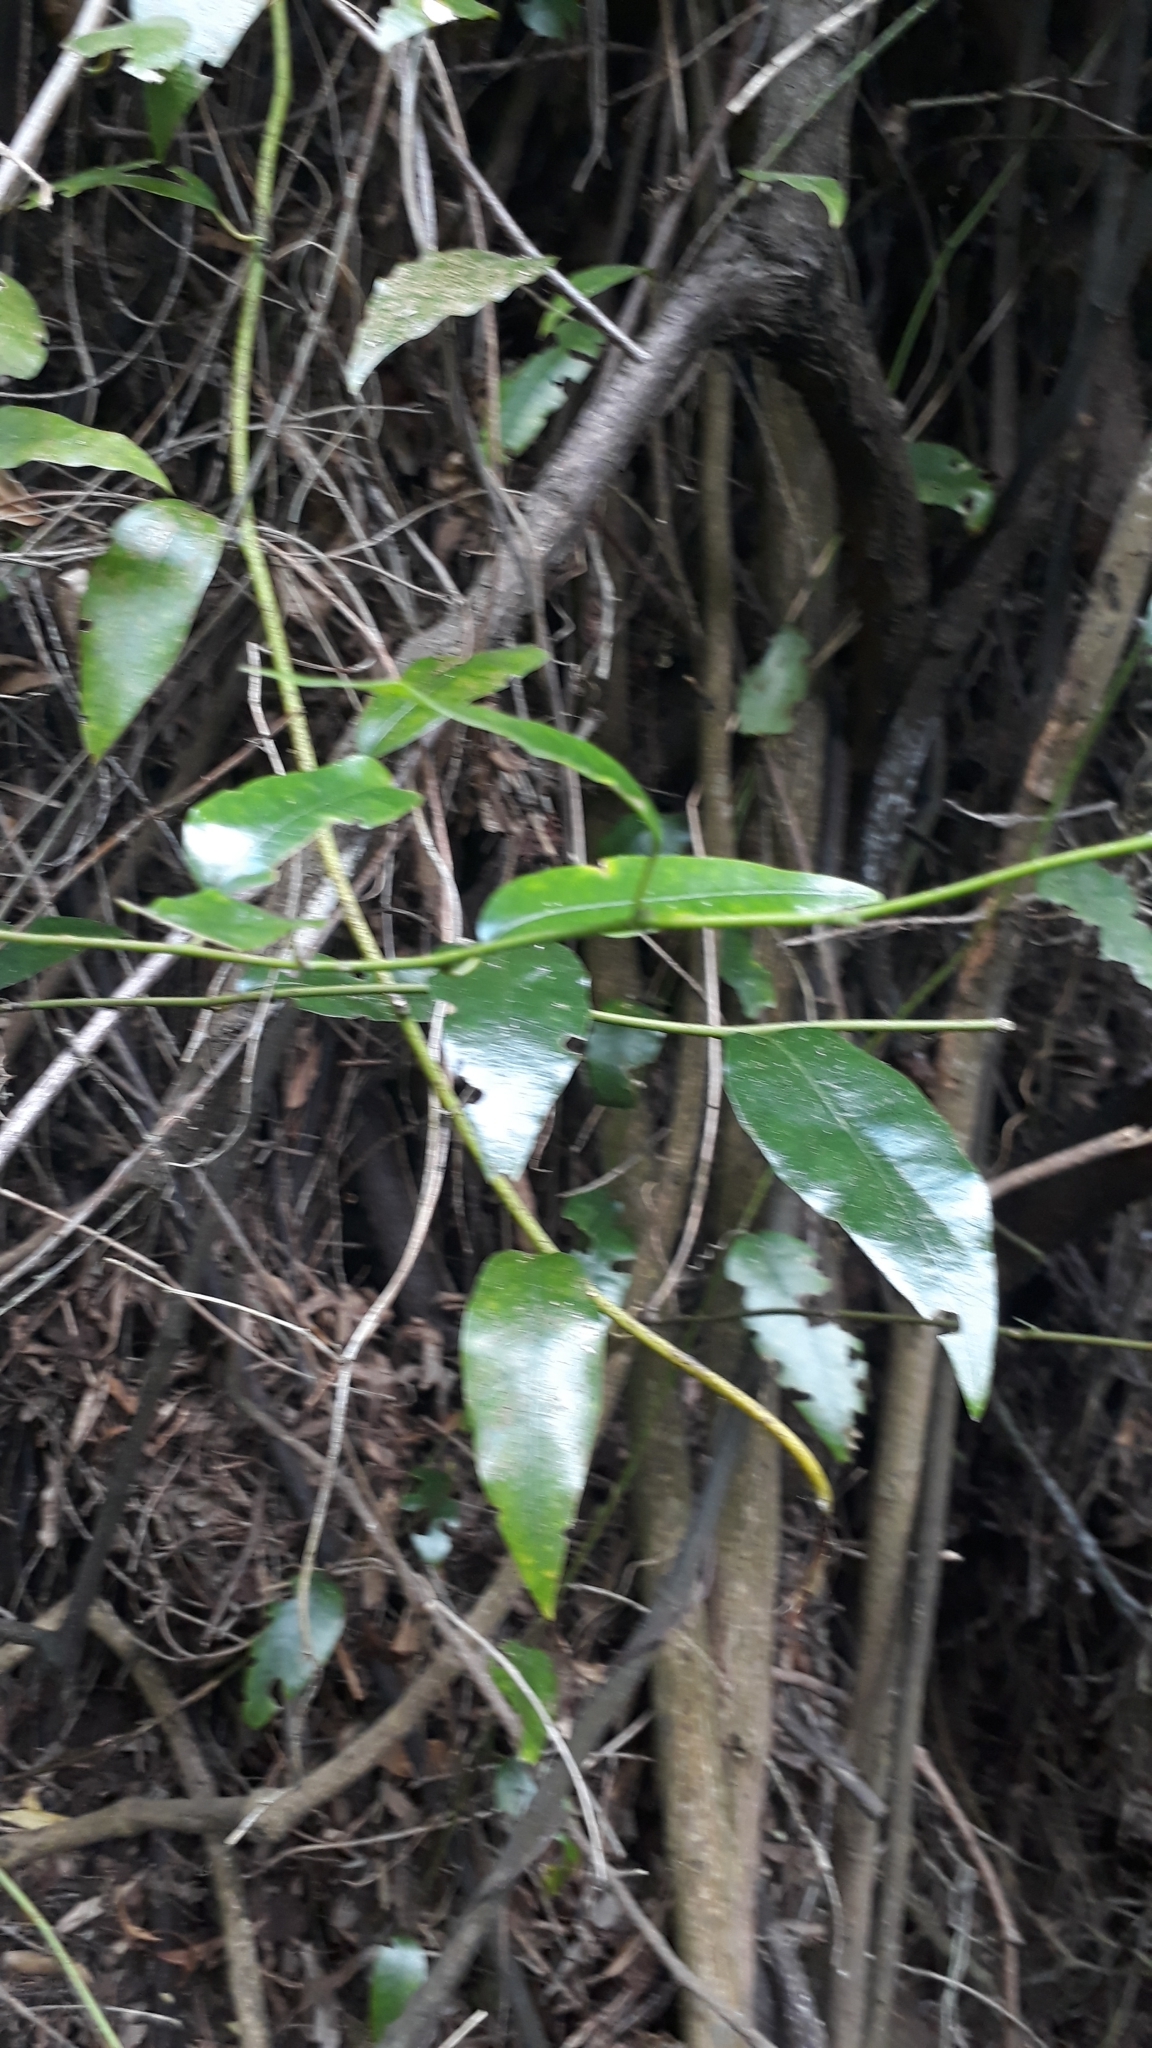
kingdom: Plantae
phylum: Tracheophyta
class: Magnoliopsida
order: Malpighiales
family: Passifloraceae
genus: Passiflora
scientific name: Passiflora tetrandra
